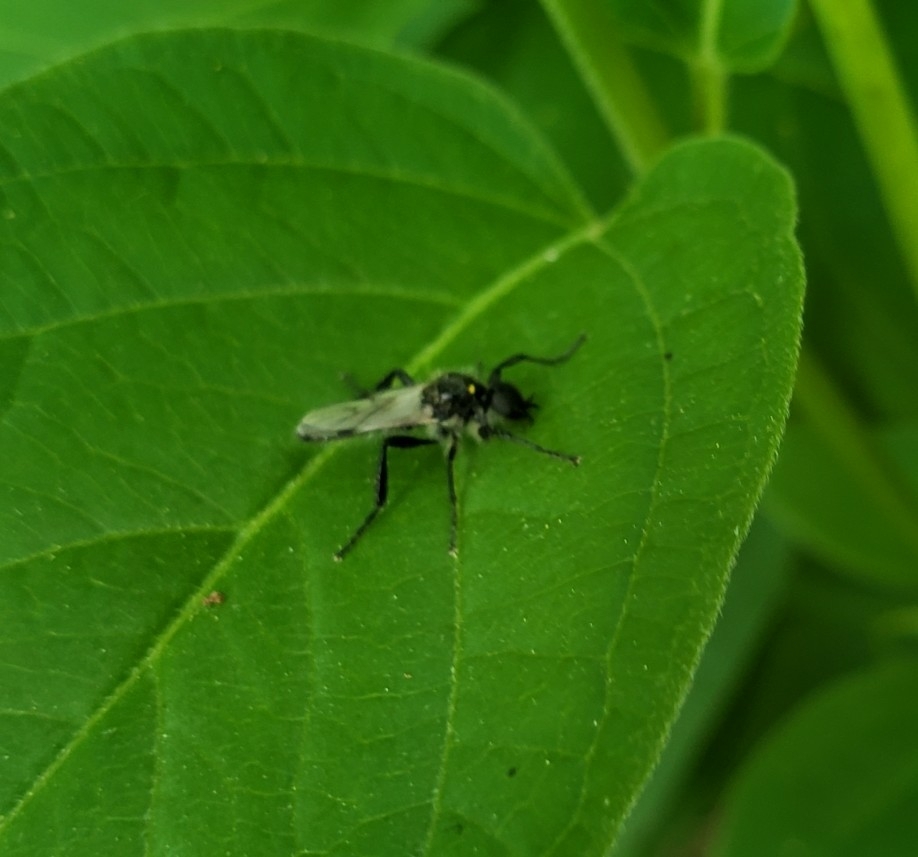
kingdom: Animalia
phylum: Arthropoda
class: Insecta
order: Diptera
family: Bibionidae
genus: Bibio
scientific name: Bibio albipennis
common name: White-winged march fly
